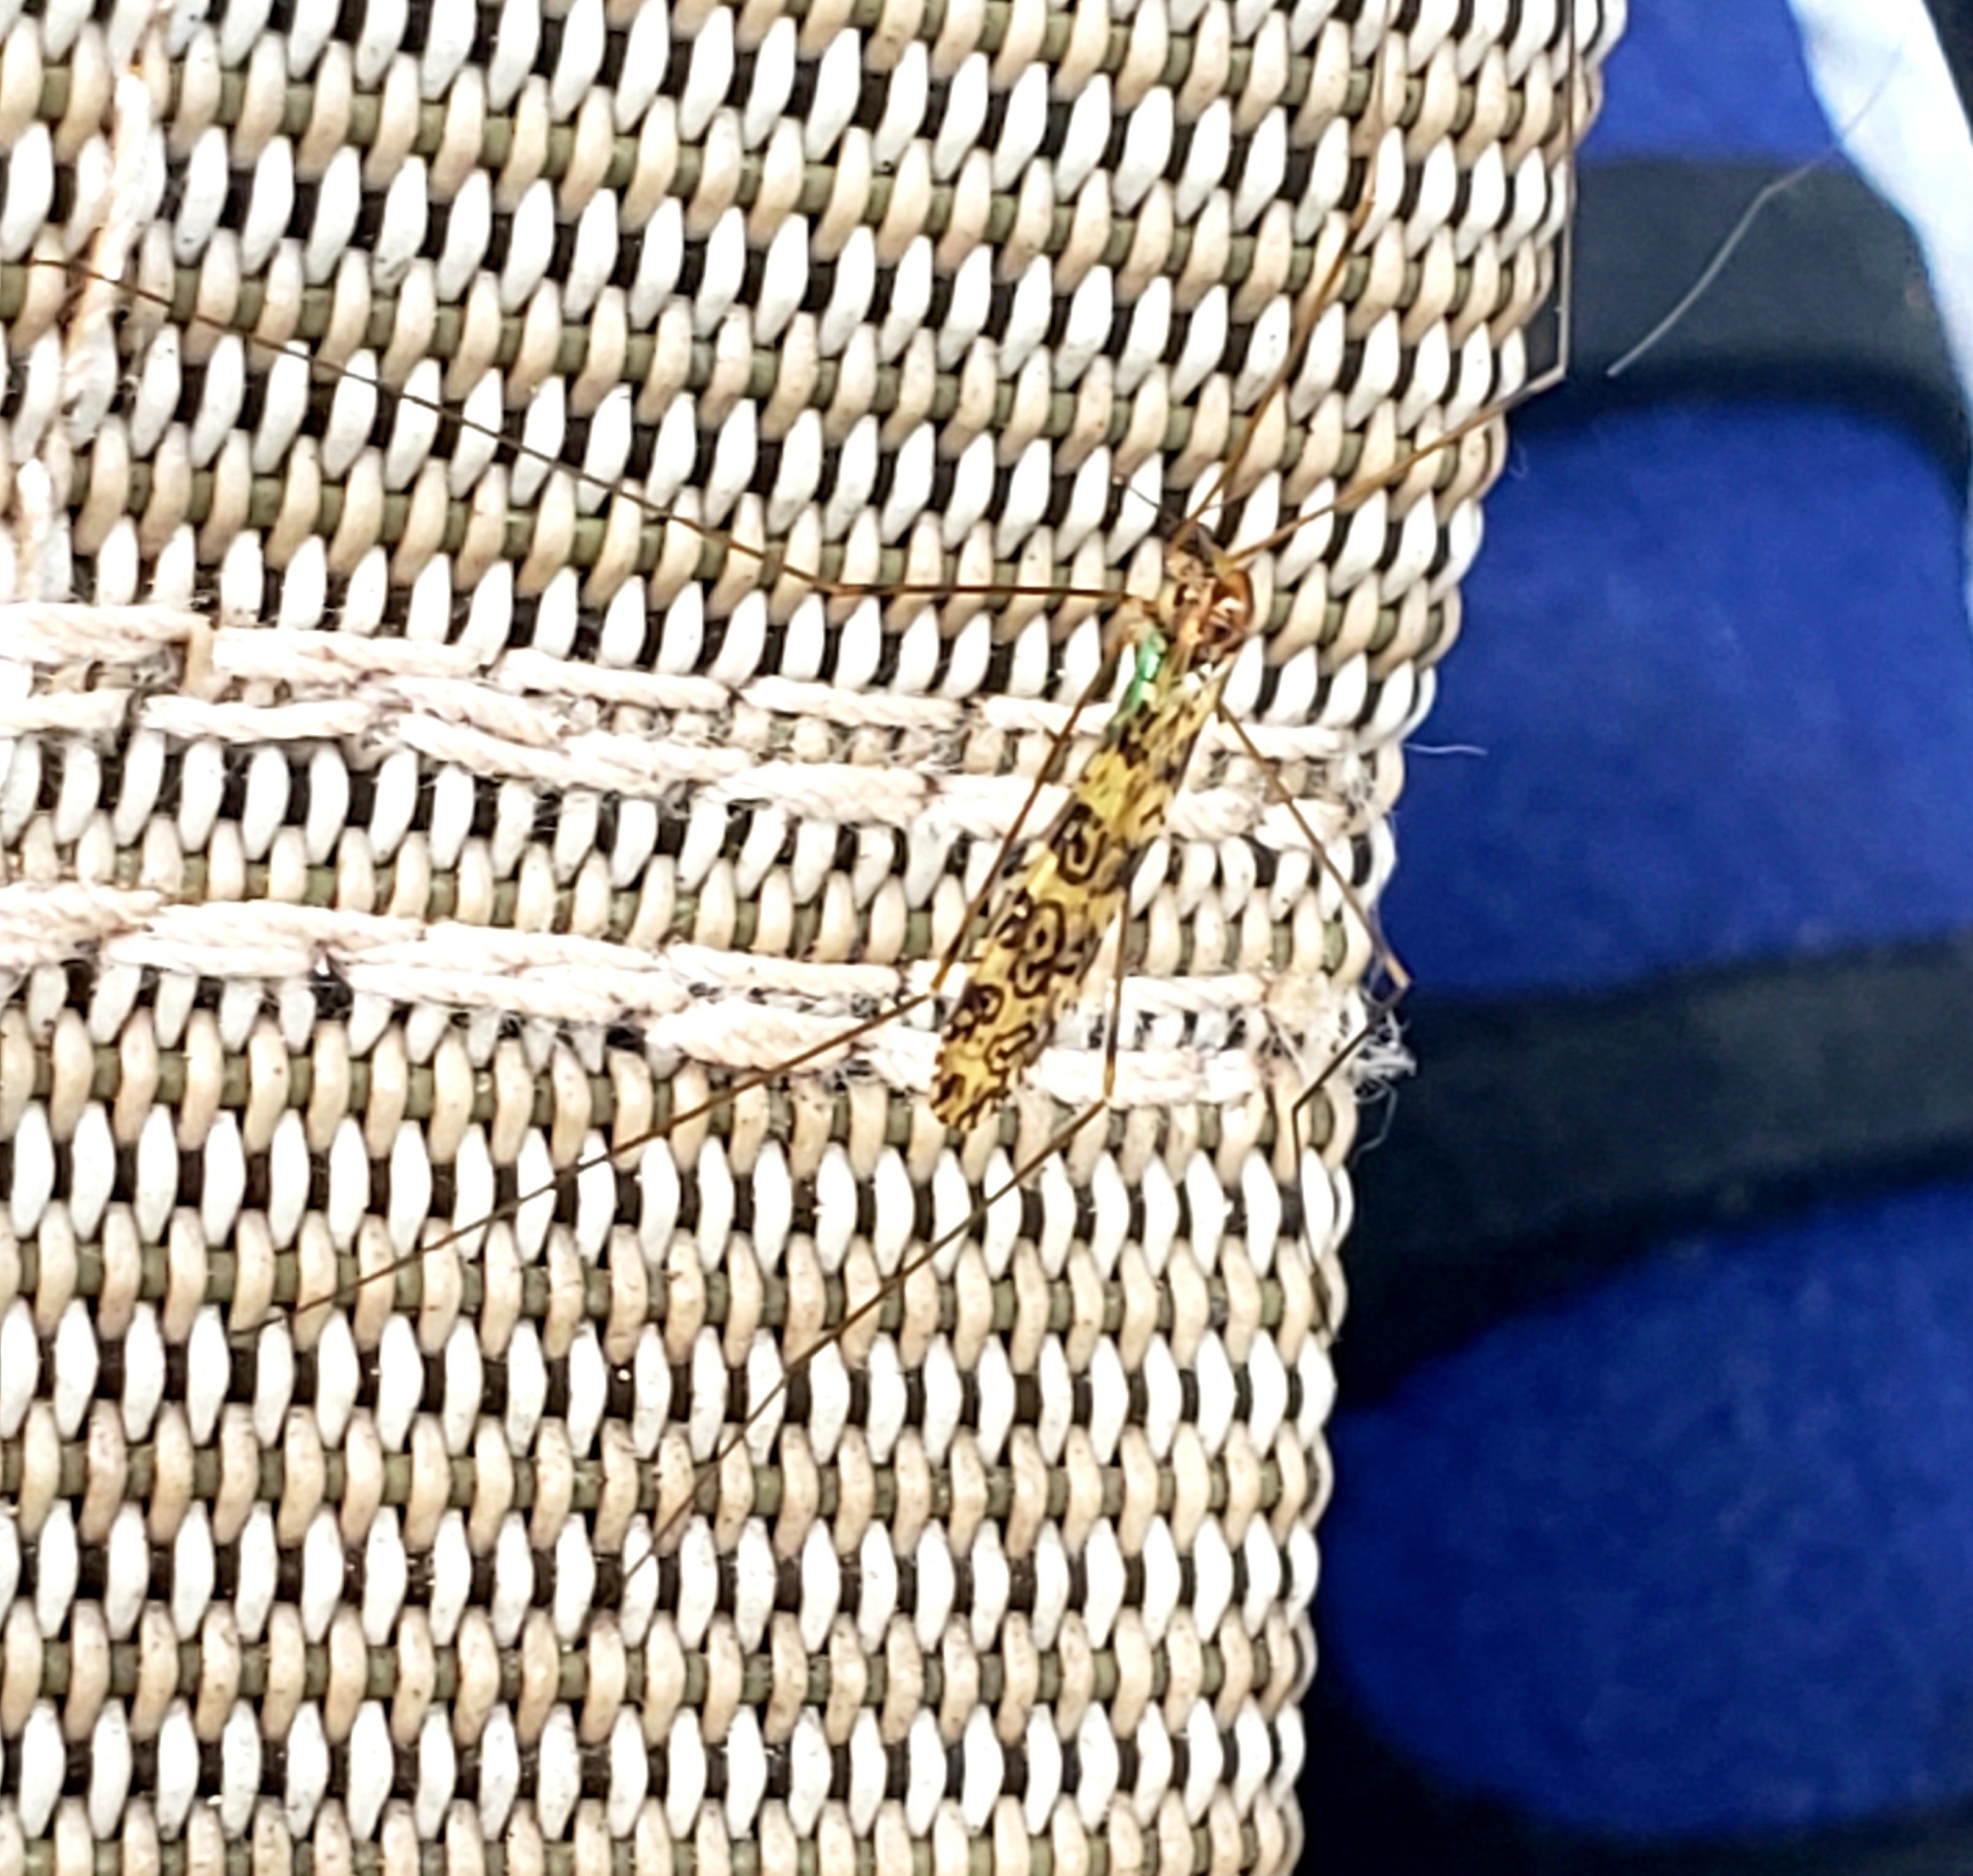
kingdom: Animalia
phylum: Arthropoda
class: Insecta
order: Diptera
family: Limoniidae
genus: Limonia
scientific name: Limonia annulata
